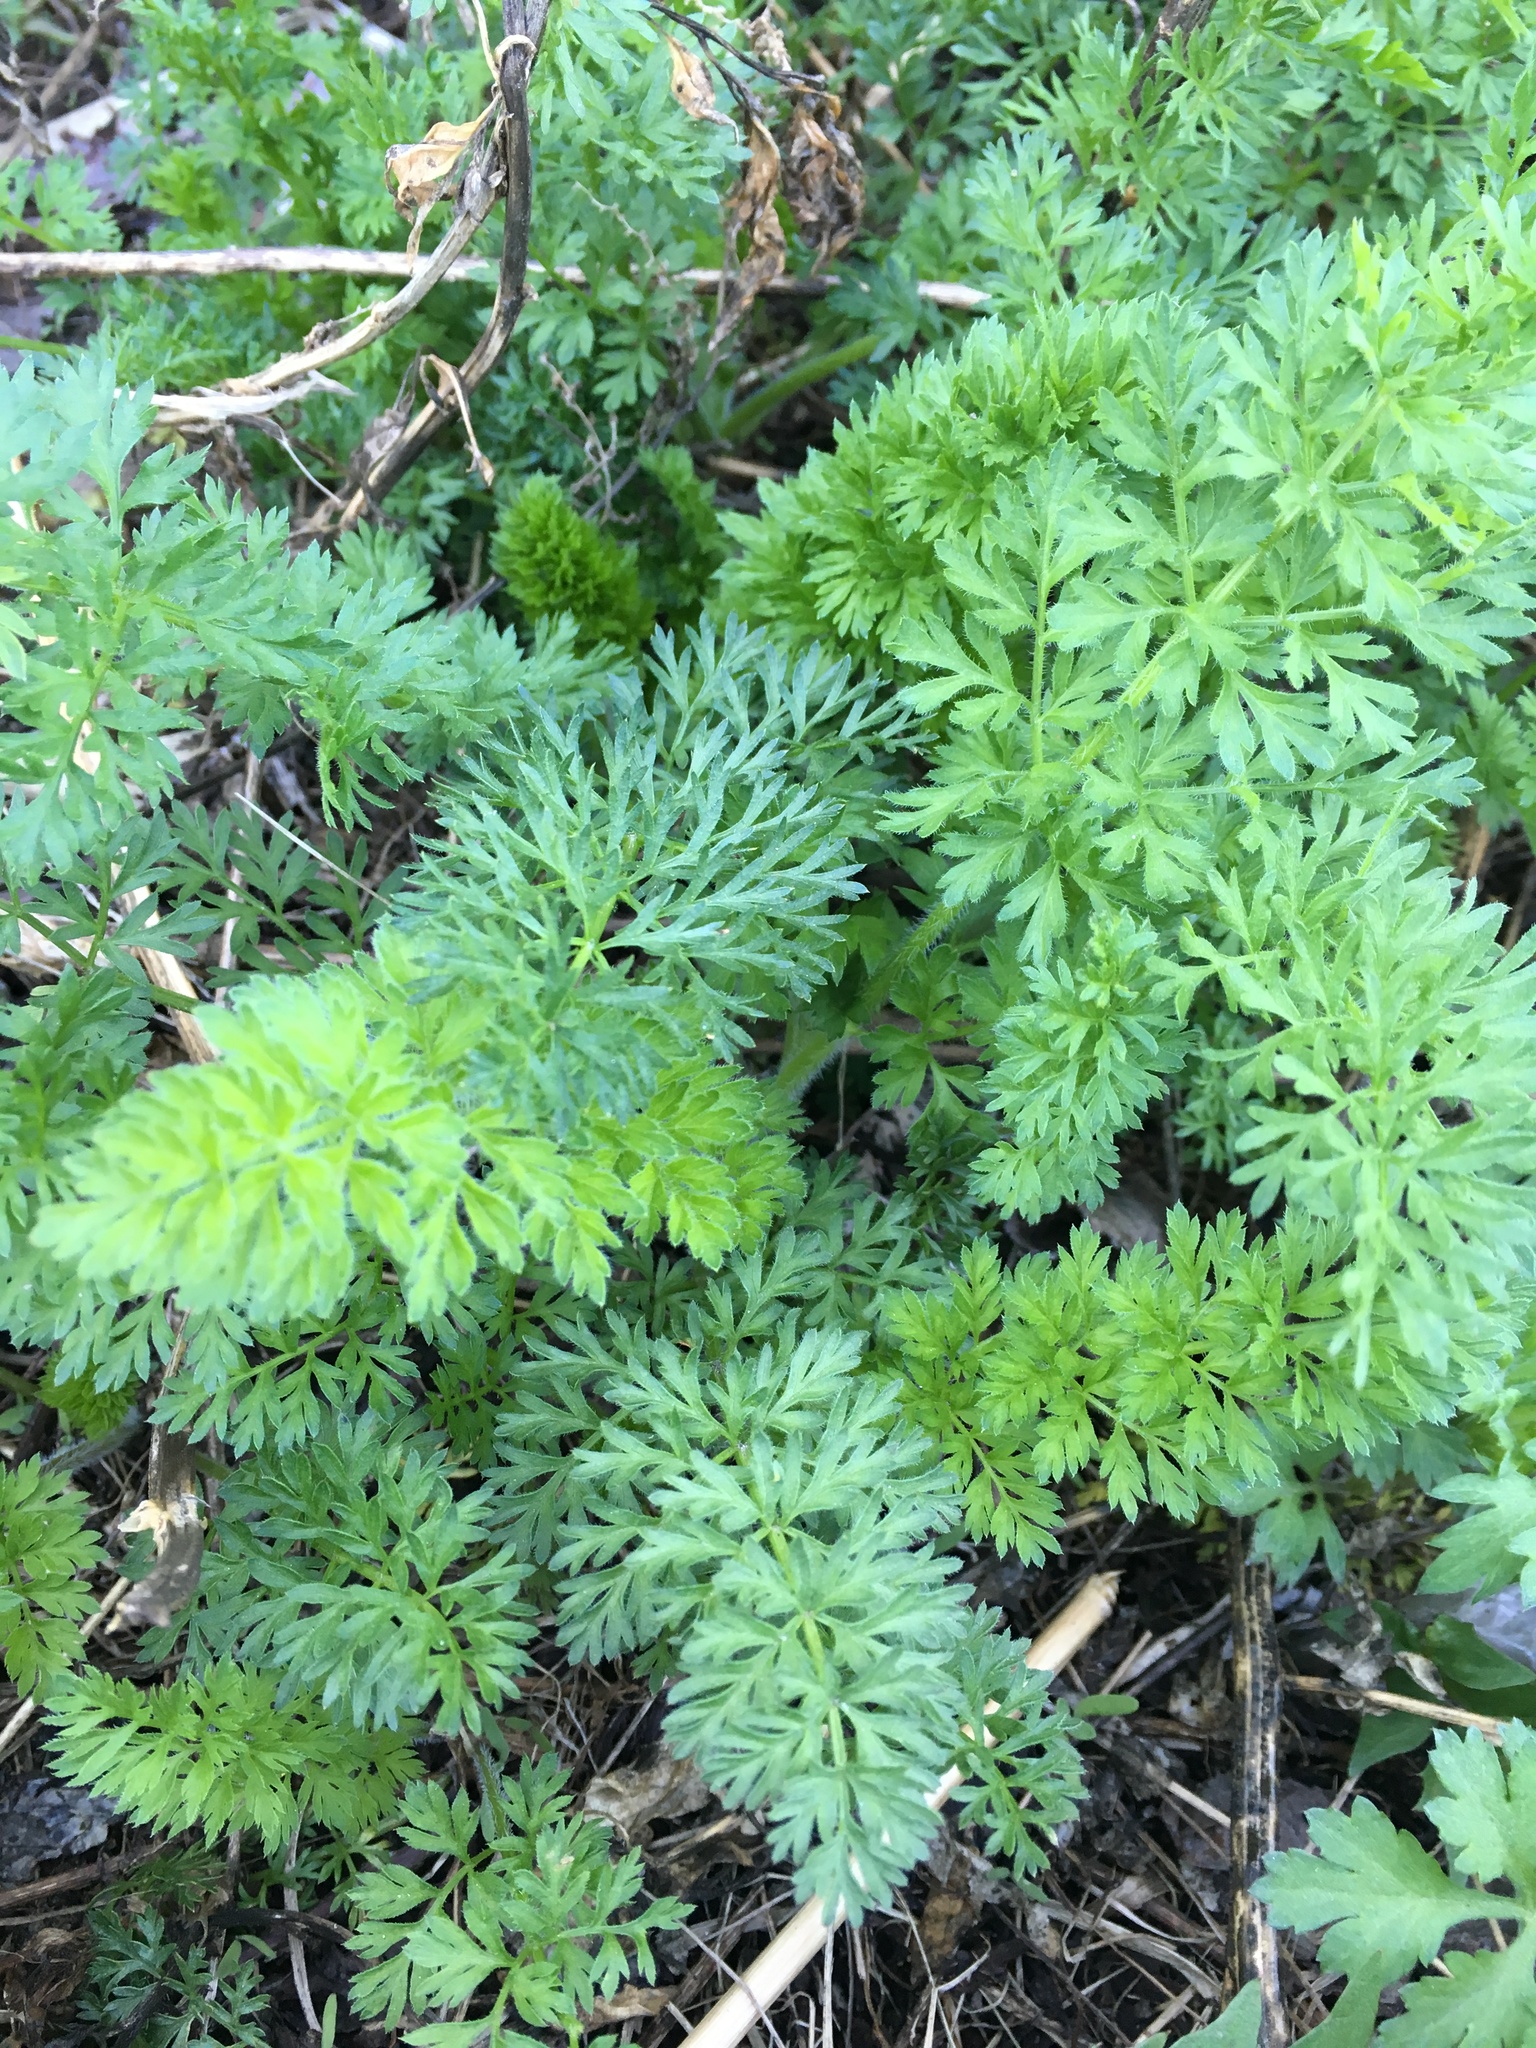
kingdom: Plantae
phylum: Tracheophyta
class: Magnoliopsida
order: Apiales
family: Apiaceae
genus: Daucus
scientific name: Daucus carota
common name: Wild carrot
